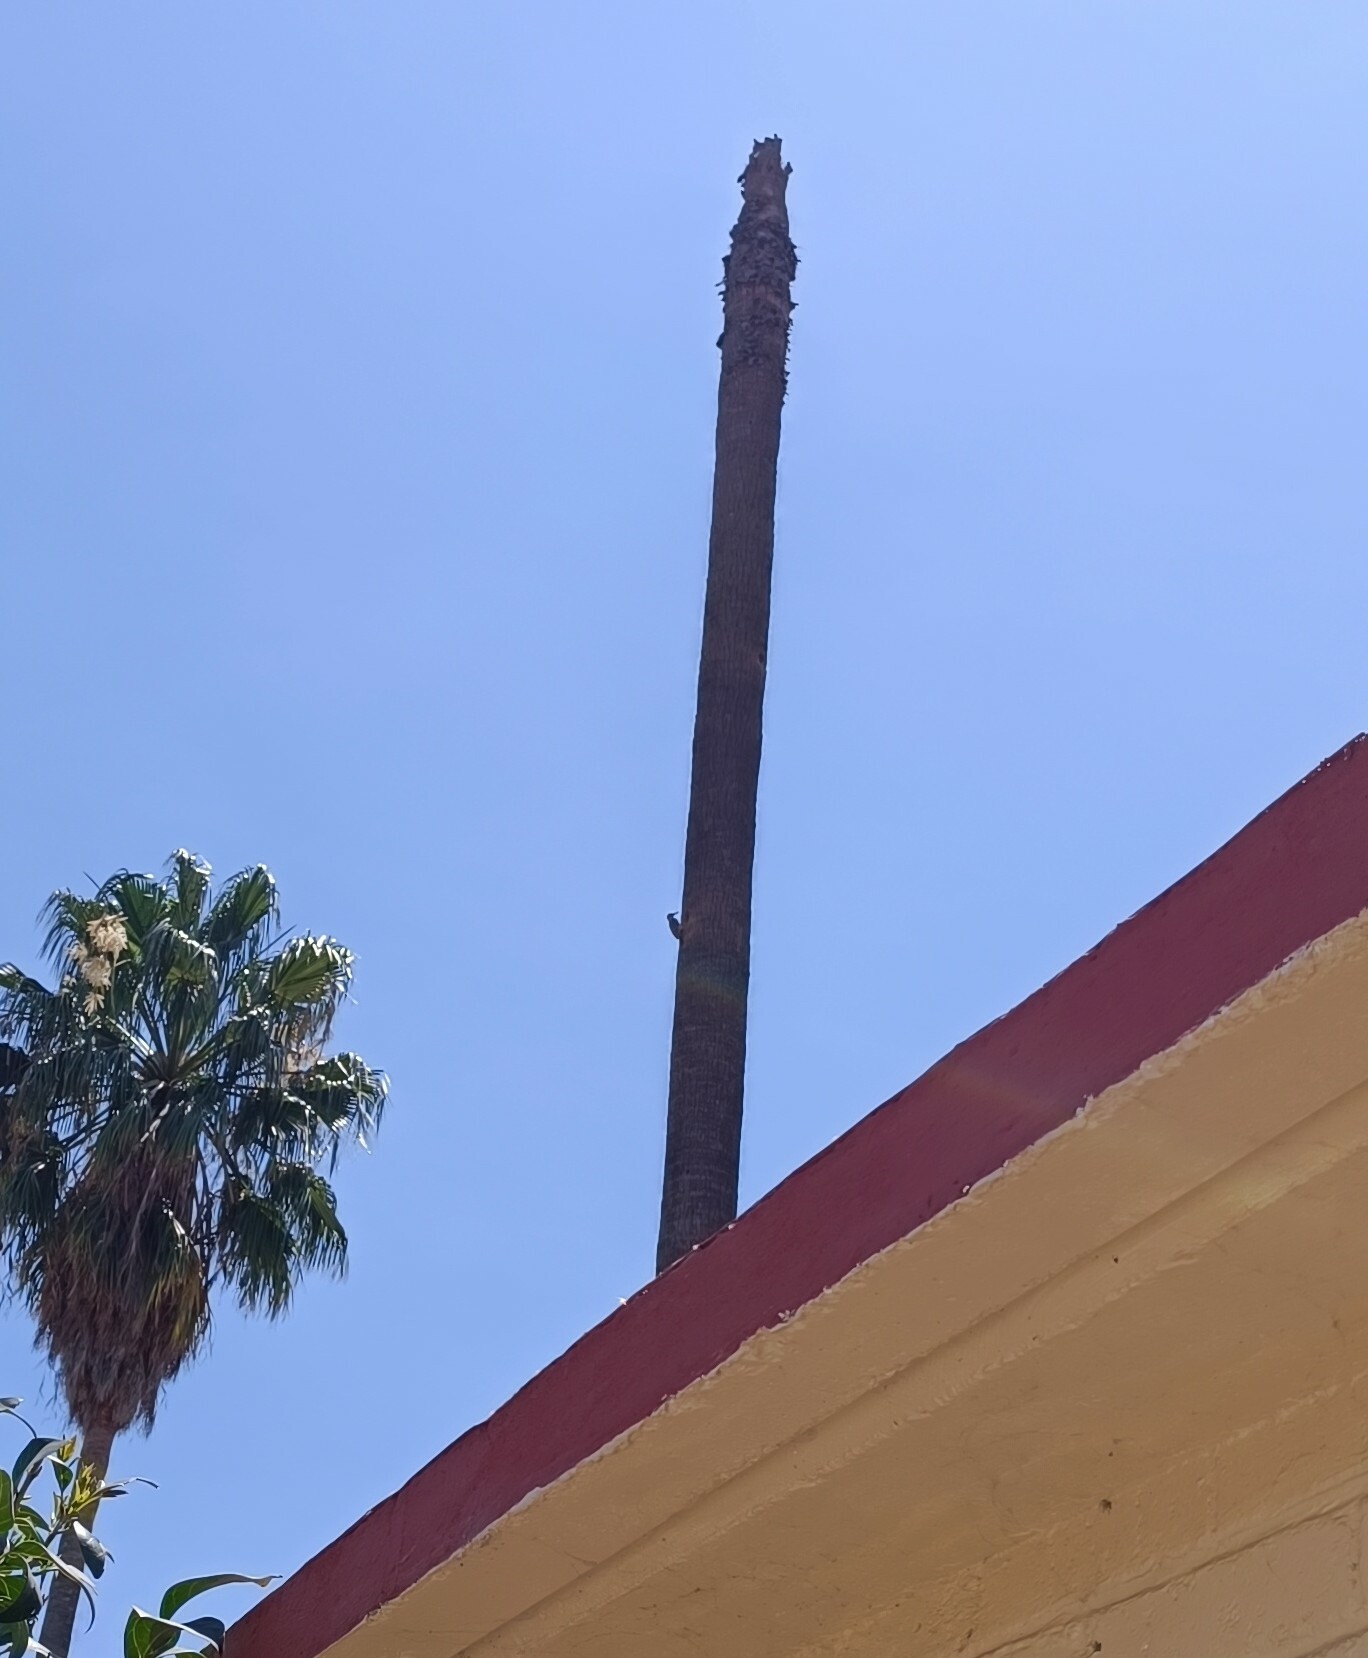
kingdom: Animalia
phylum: Chordata
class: Aves
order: Piciformes
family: Picidae
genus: Melanerpes
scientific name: Melanerpes aurifrons
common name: Golden-fronted woodpecker
